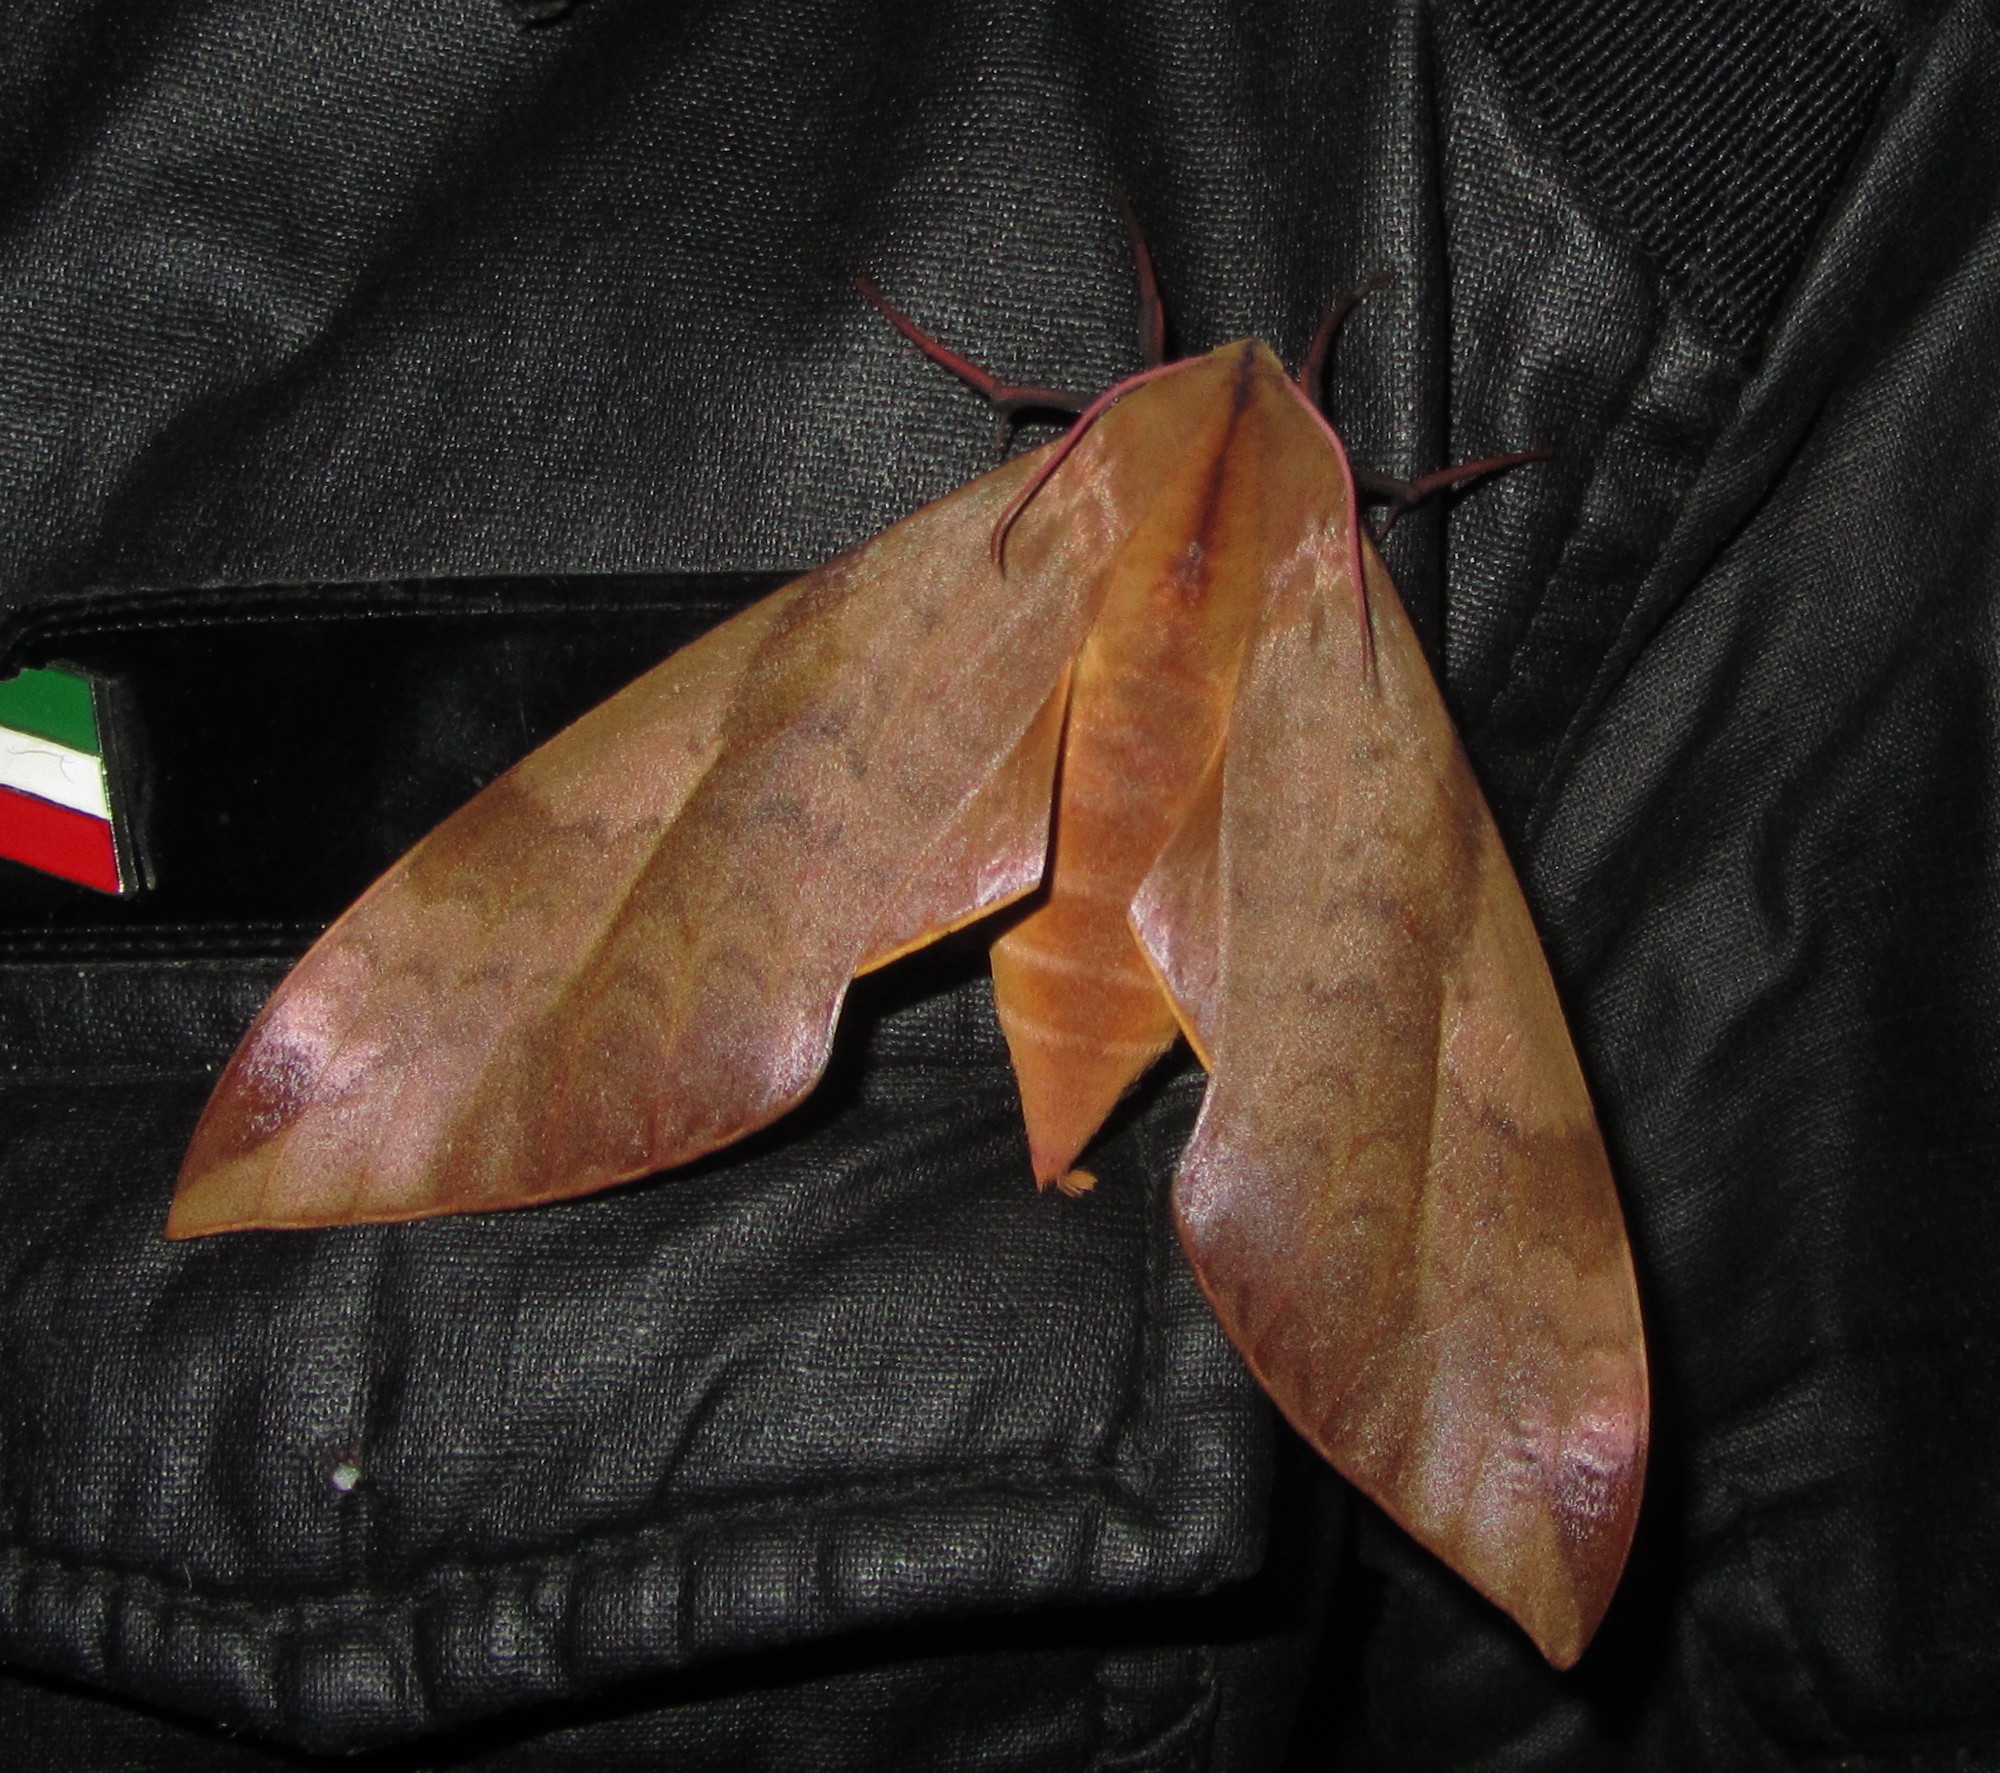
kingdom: Animalia
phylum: Arthropoda
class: Insecta
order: Lepidoptera
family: Sphingidae
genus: Clanis
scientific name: Clanis undulosa
